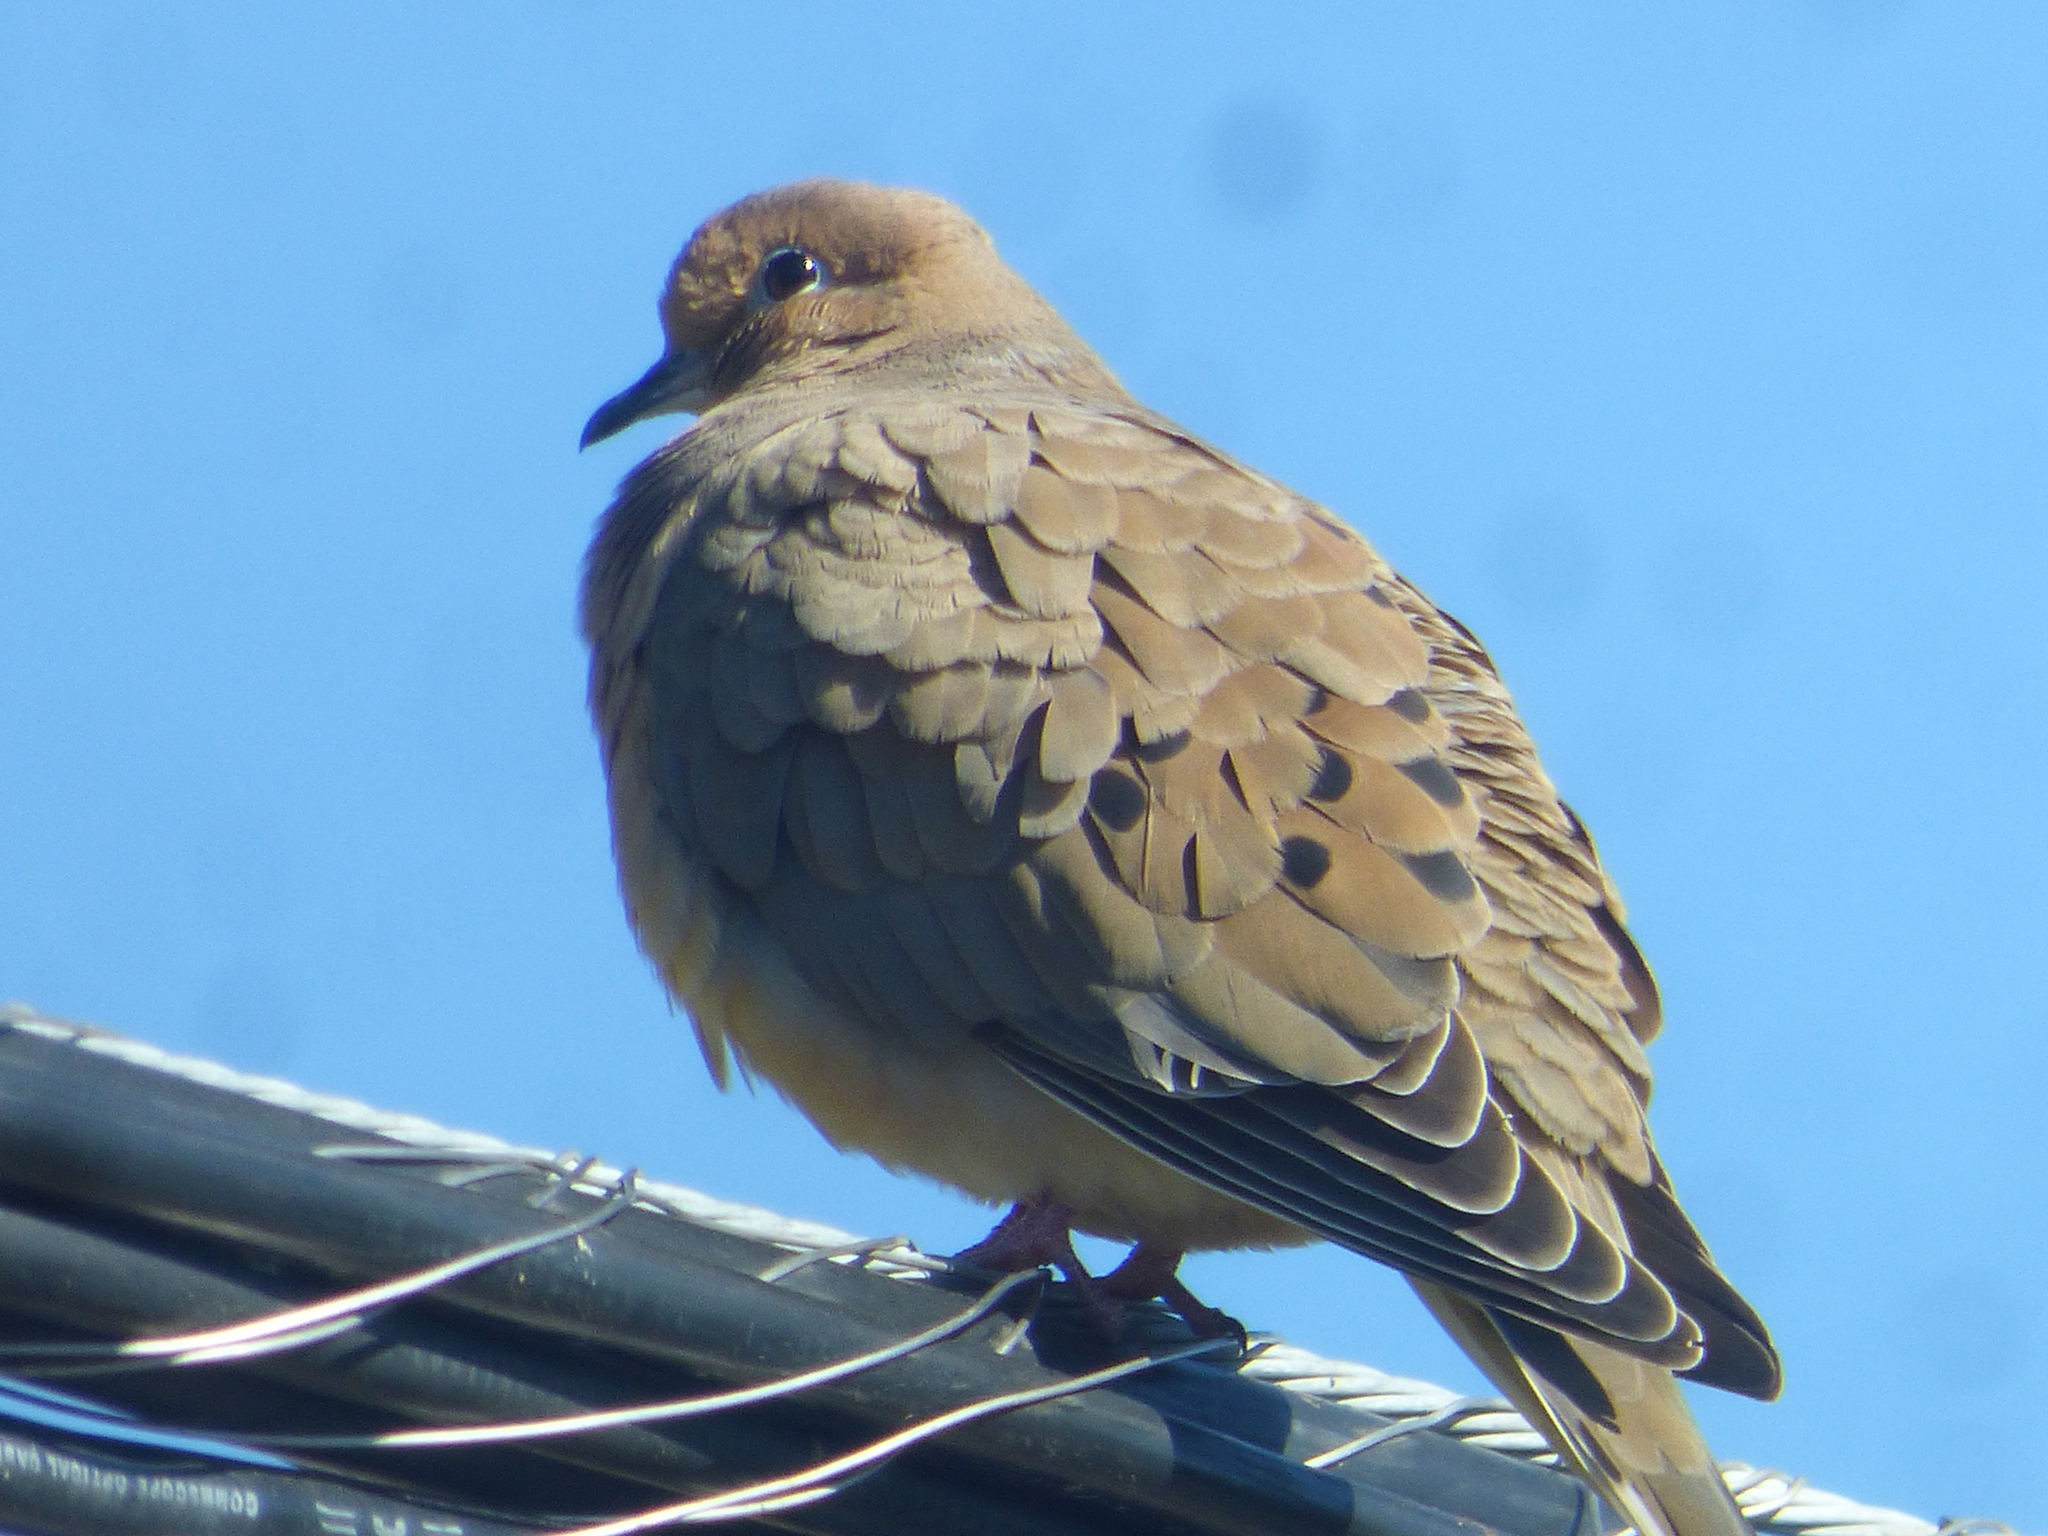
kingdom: Animalia
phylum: Chordata
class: Aves
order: Columbiformes
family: Columbidae
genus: Zenaida
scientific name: Zenaida macroura
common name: Mourning dove
